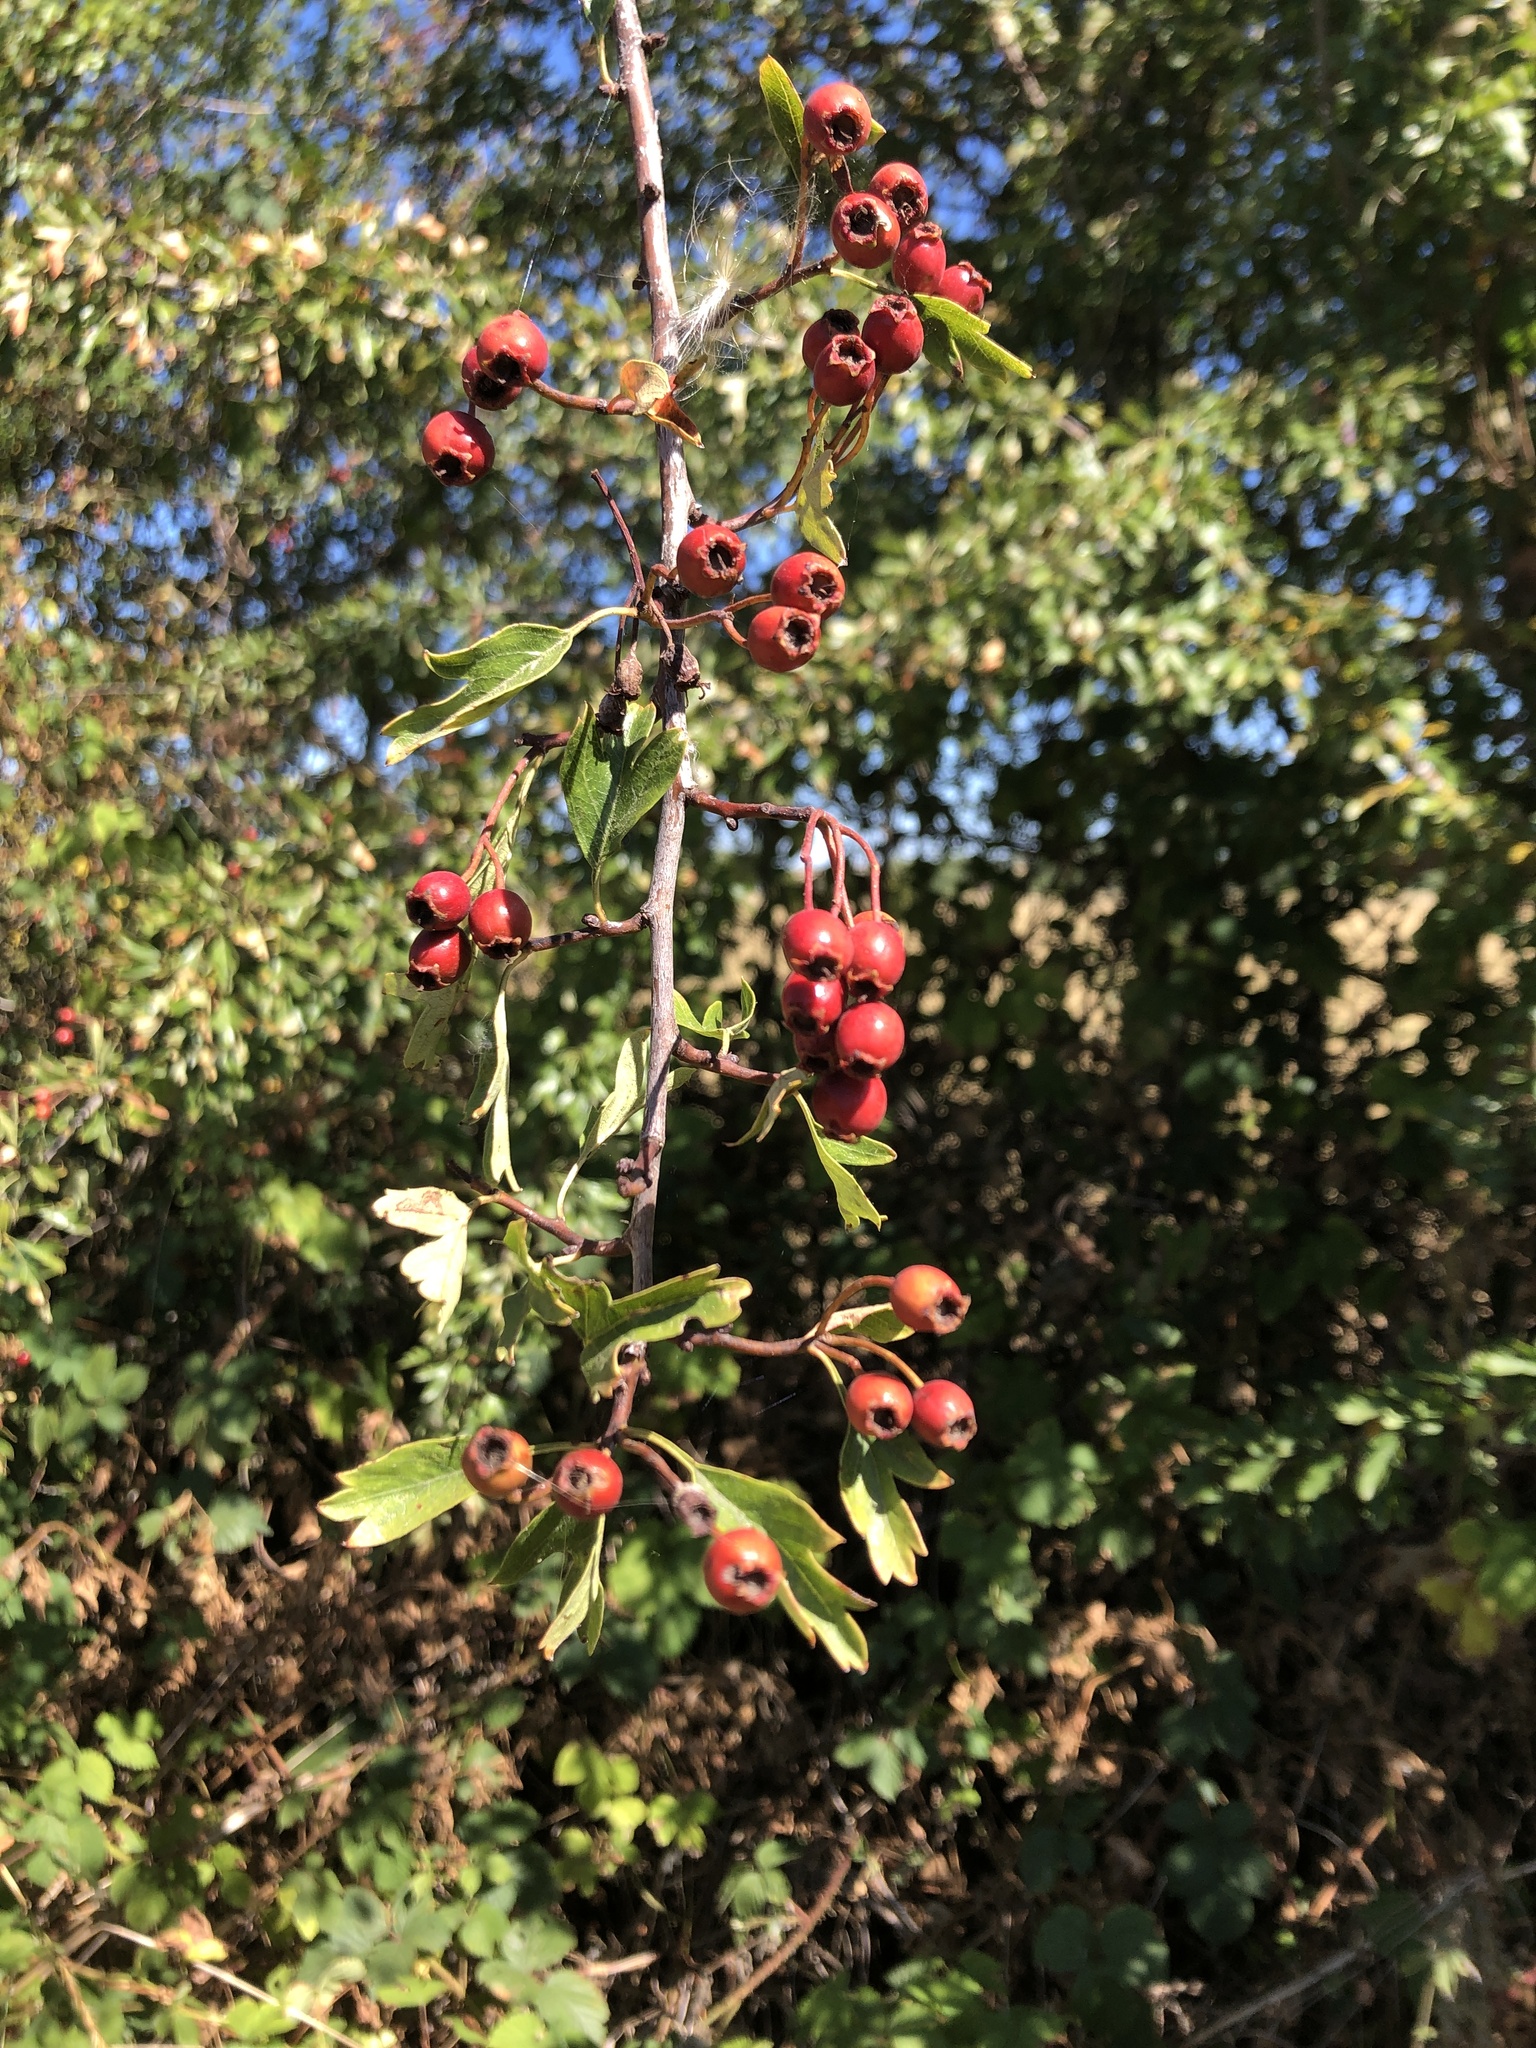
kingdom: Plantae
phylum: Tracheophyta
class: Magnoliopsida
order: Rosales
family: Rosaceae
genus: Crataegus
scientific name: Crataegus monogyna
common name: Hawthorn
